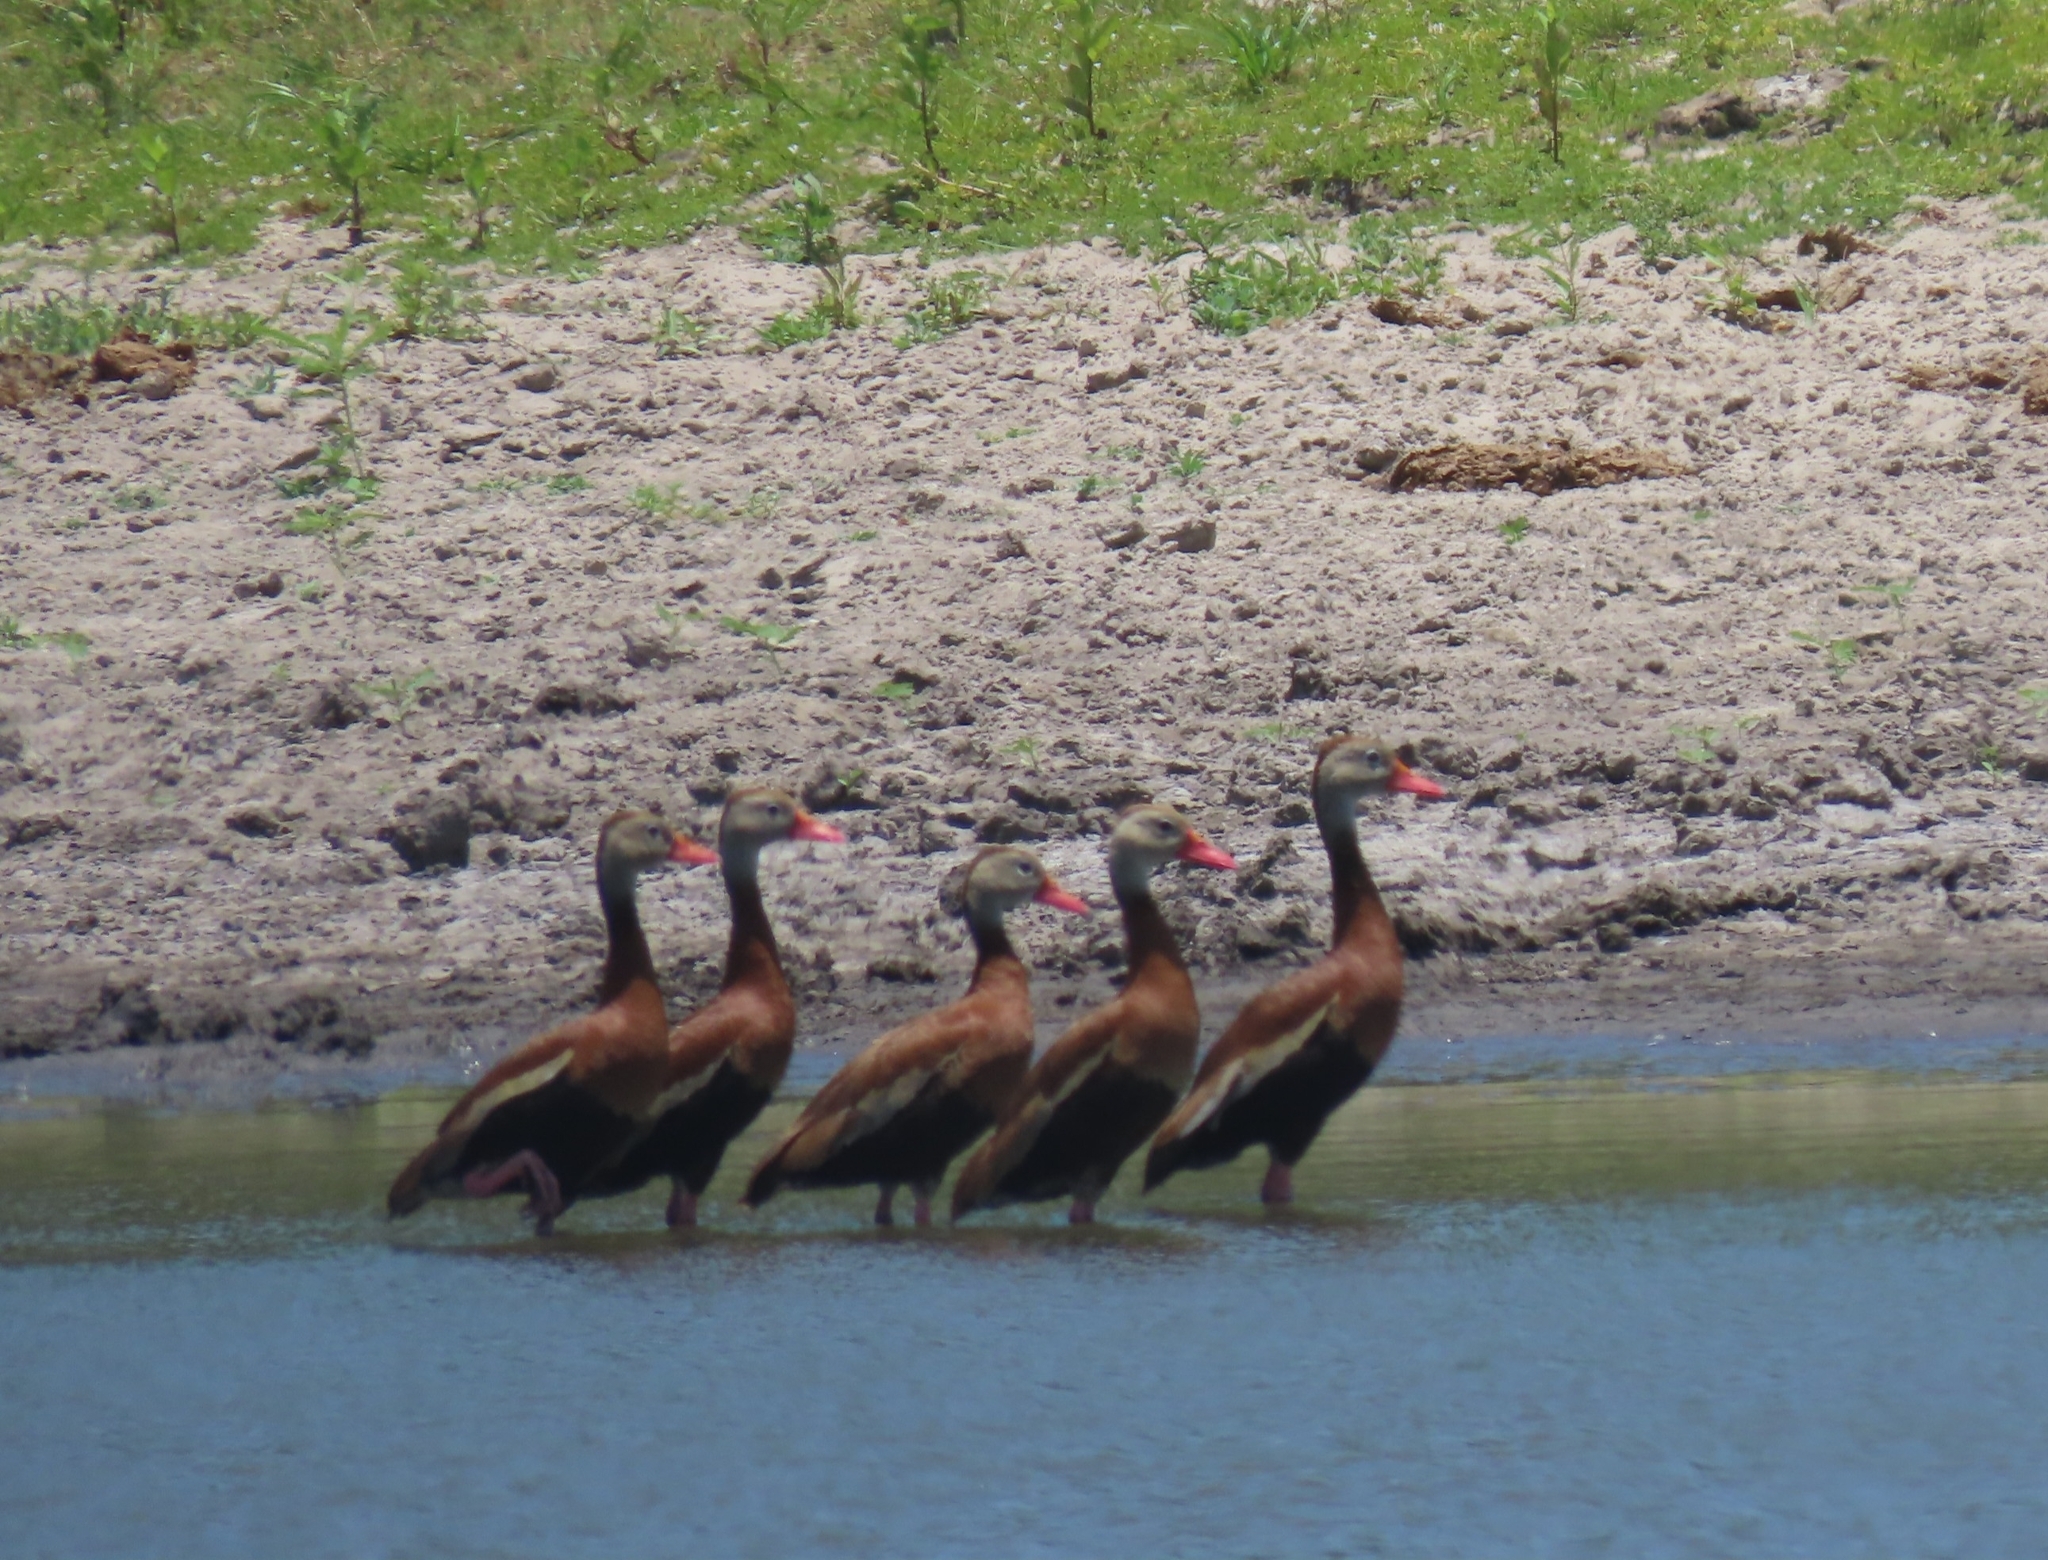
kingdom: Animalia
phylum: Chordata
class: Aves
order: Anseriformes
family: Anatidae
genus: Dendrocygna
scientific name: Dendrocygna autumnalis
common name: Black-bellied whistling duck
